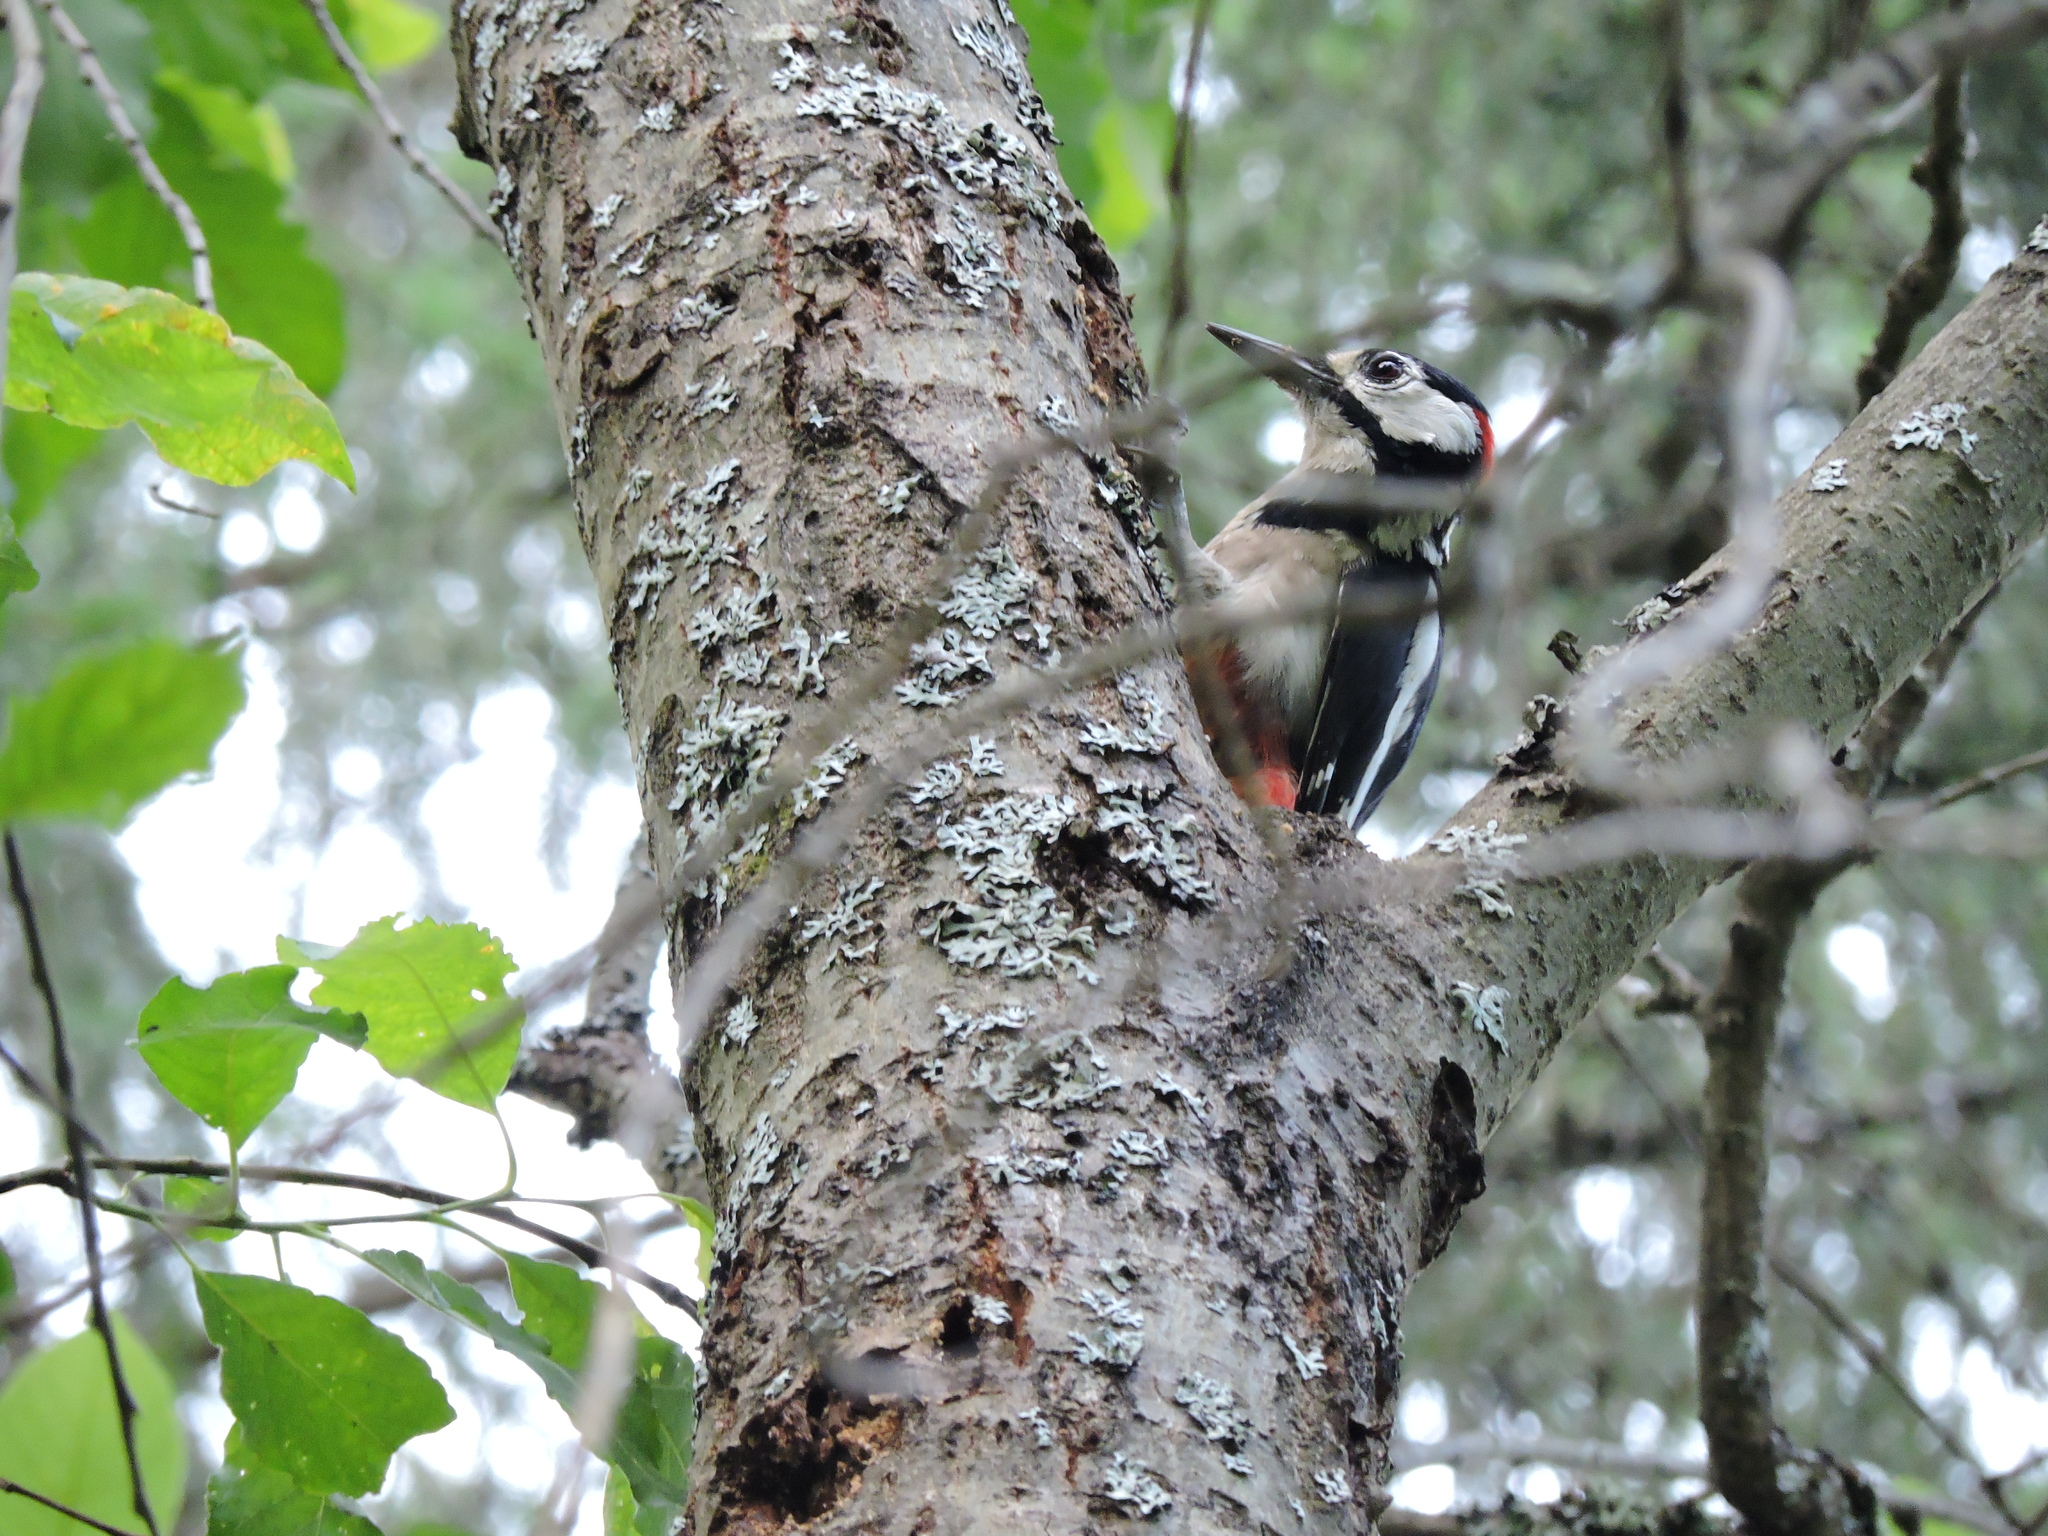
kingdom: Animalia
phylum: Chordata
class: Aves
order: Piciformes
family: Picidae
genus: Dendrocopos
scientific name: Dendrocopos major
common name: Great spotted woodpecker
